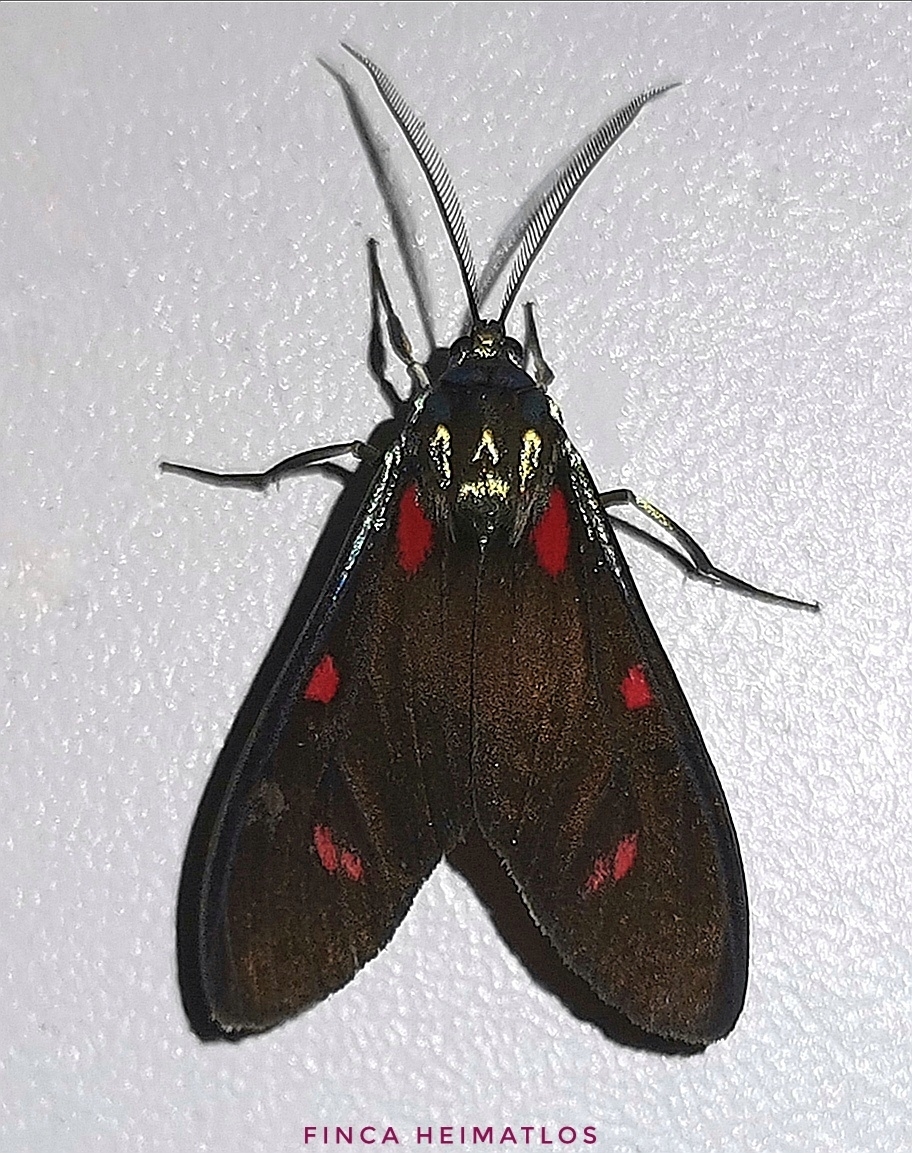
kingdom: Animalia
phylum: Arthropoda
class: Insecta
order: Lepidoptera
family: Erebidae
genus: Cyanopepla
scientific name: Cyanopepla fastuosa
